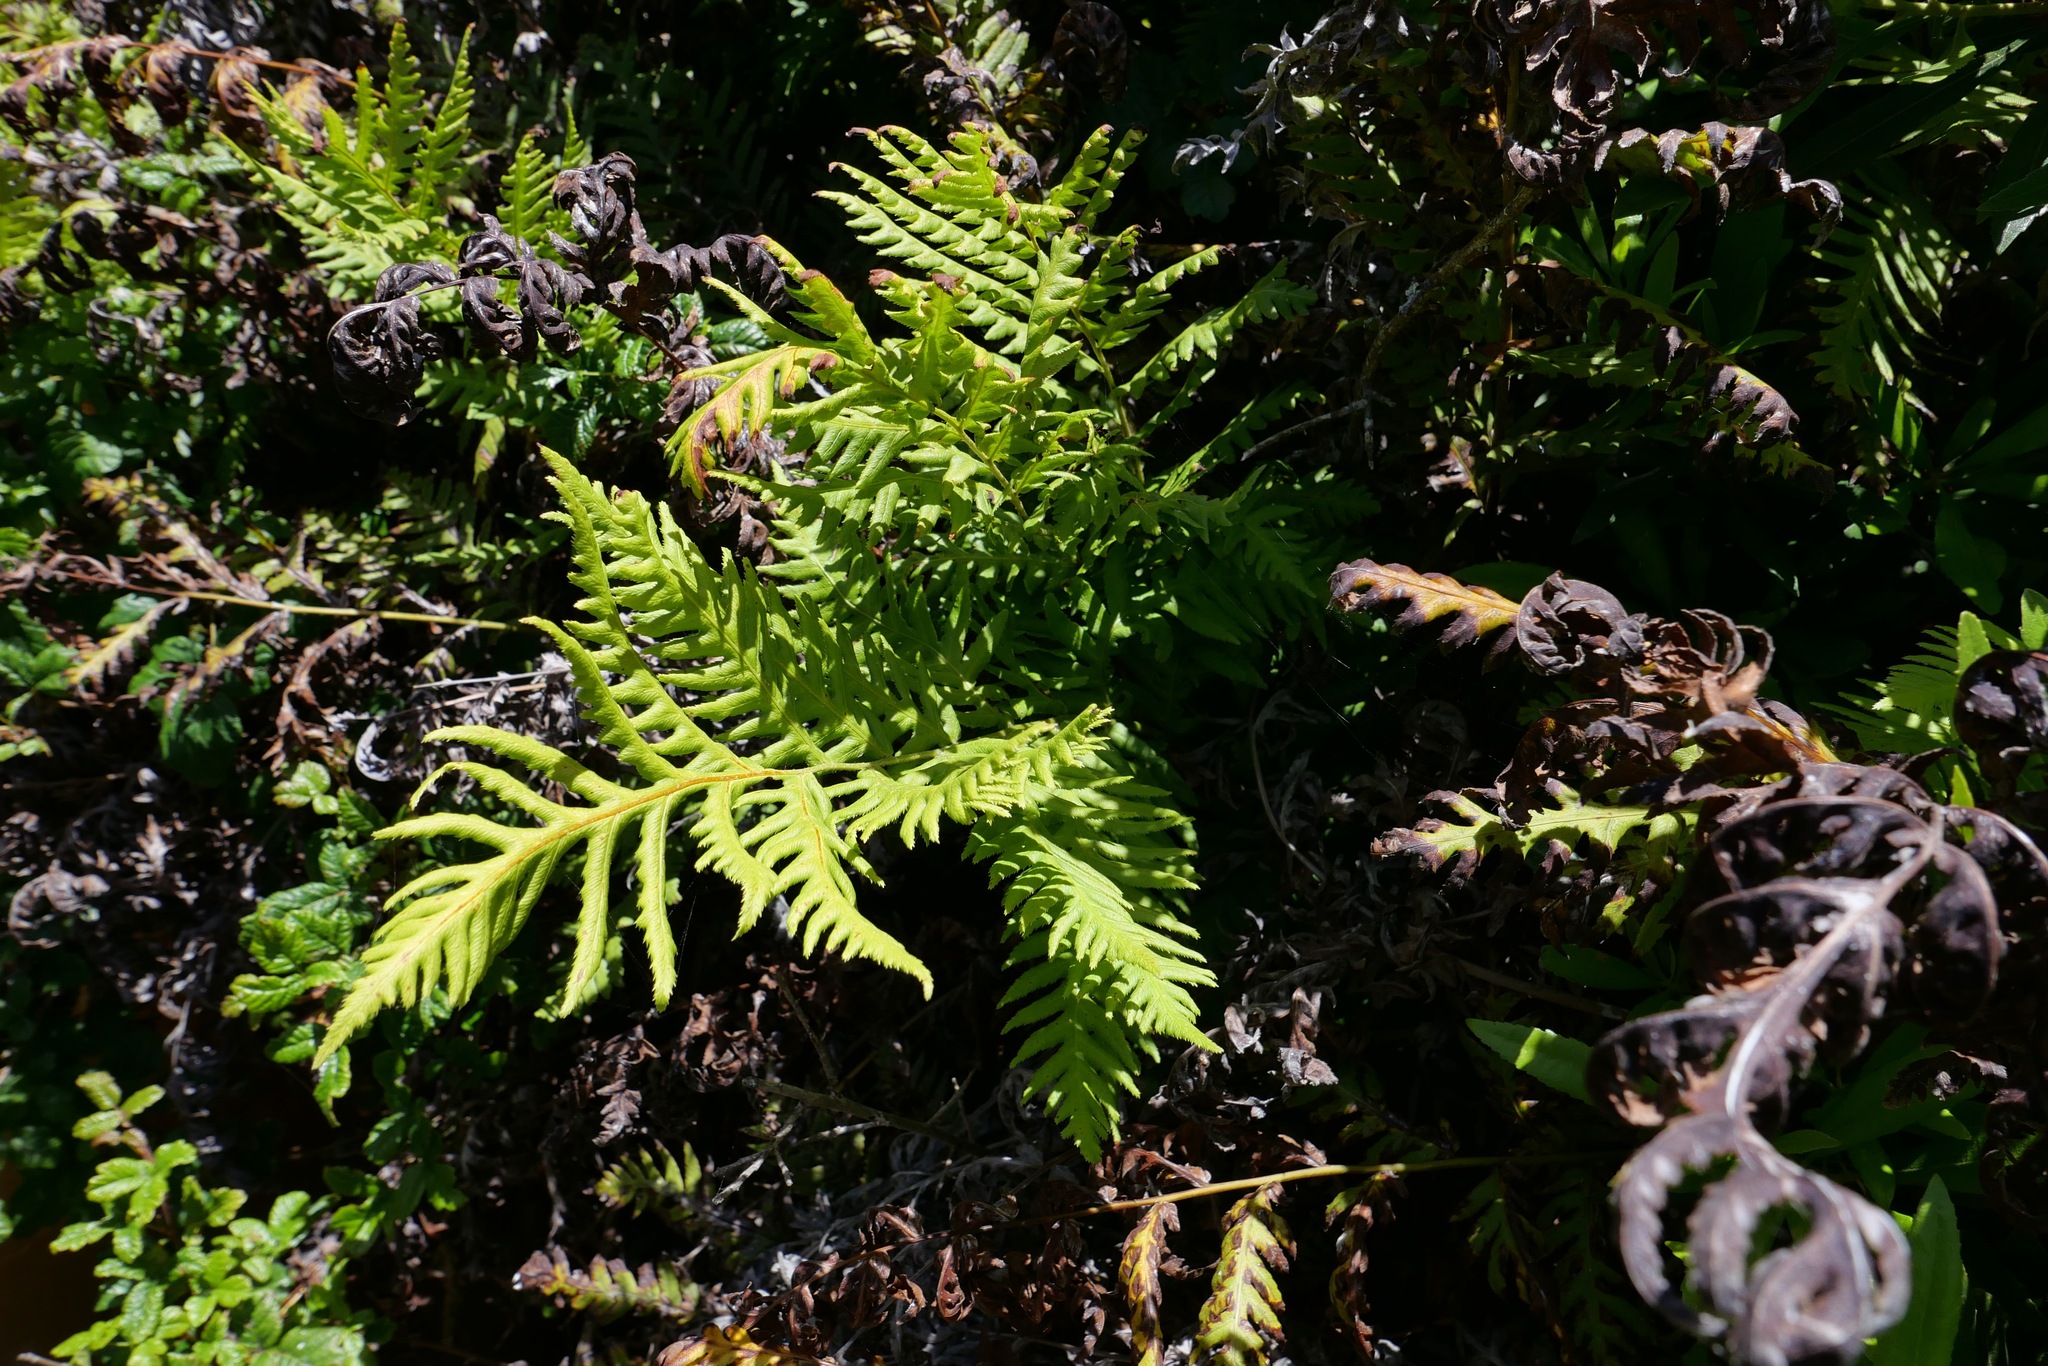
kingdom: Plantae
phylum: Tracheophyta
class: Polypodiopsida
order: Polypodiales
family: Blechnaceae
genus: Woodwardia
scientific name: Woodwardia fimbriata
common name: Giant chain fern
